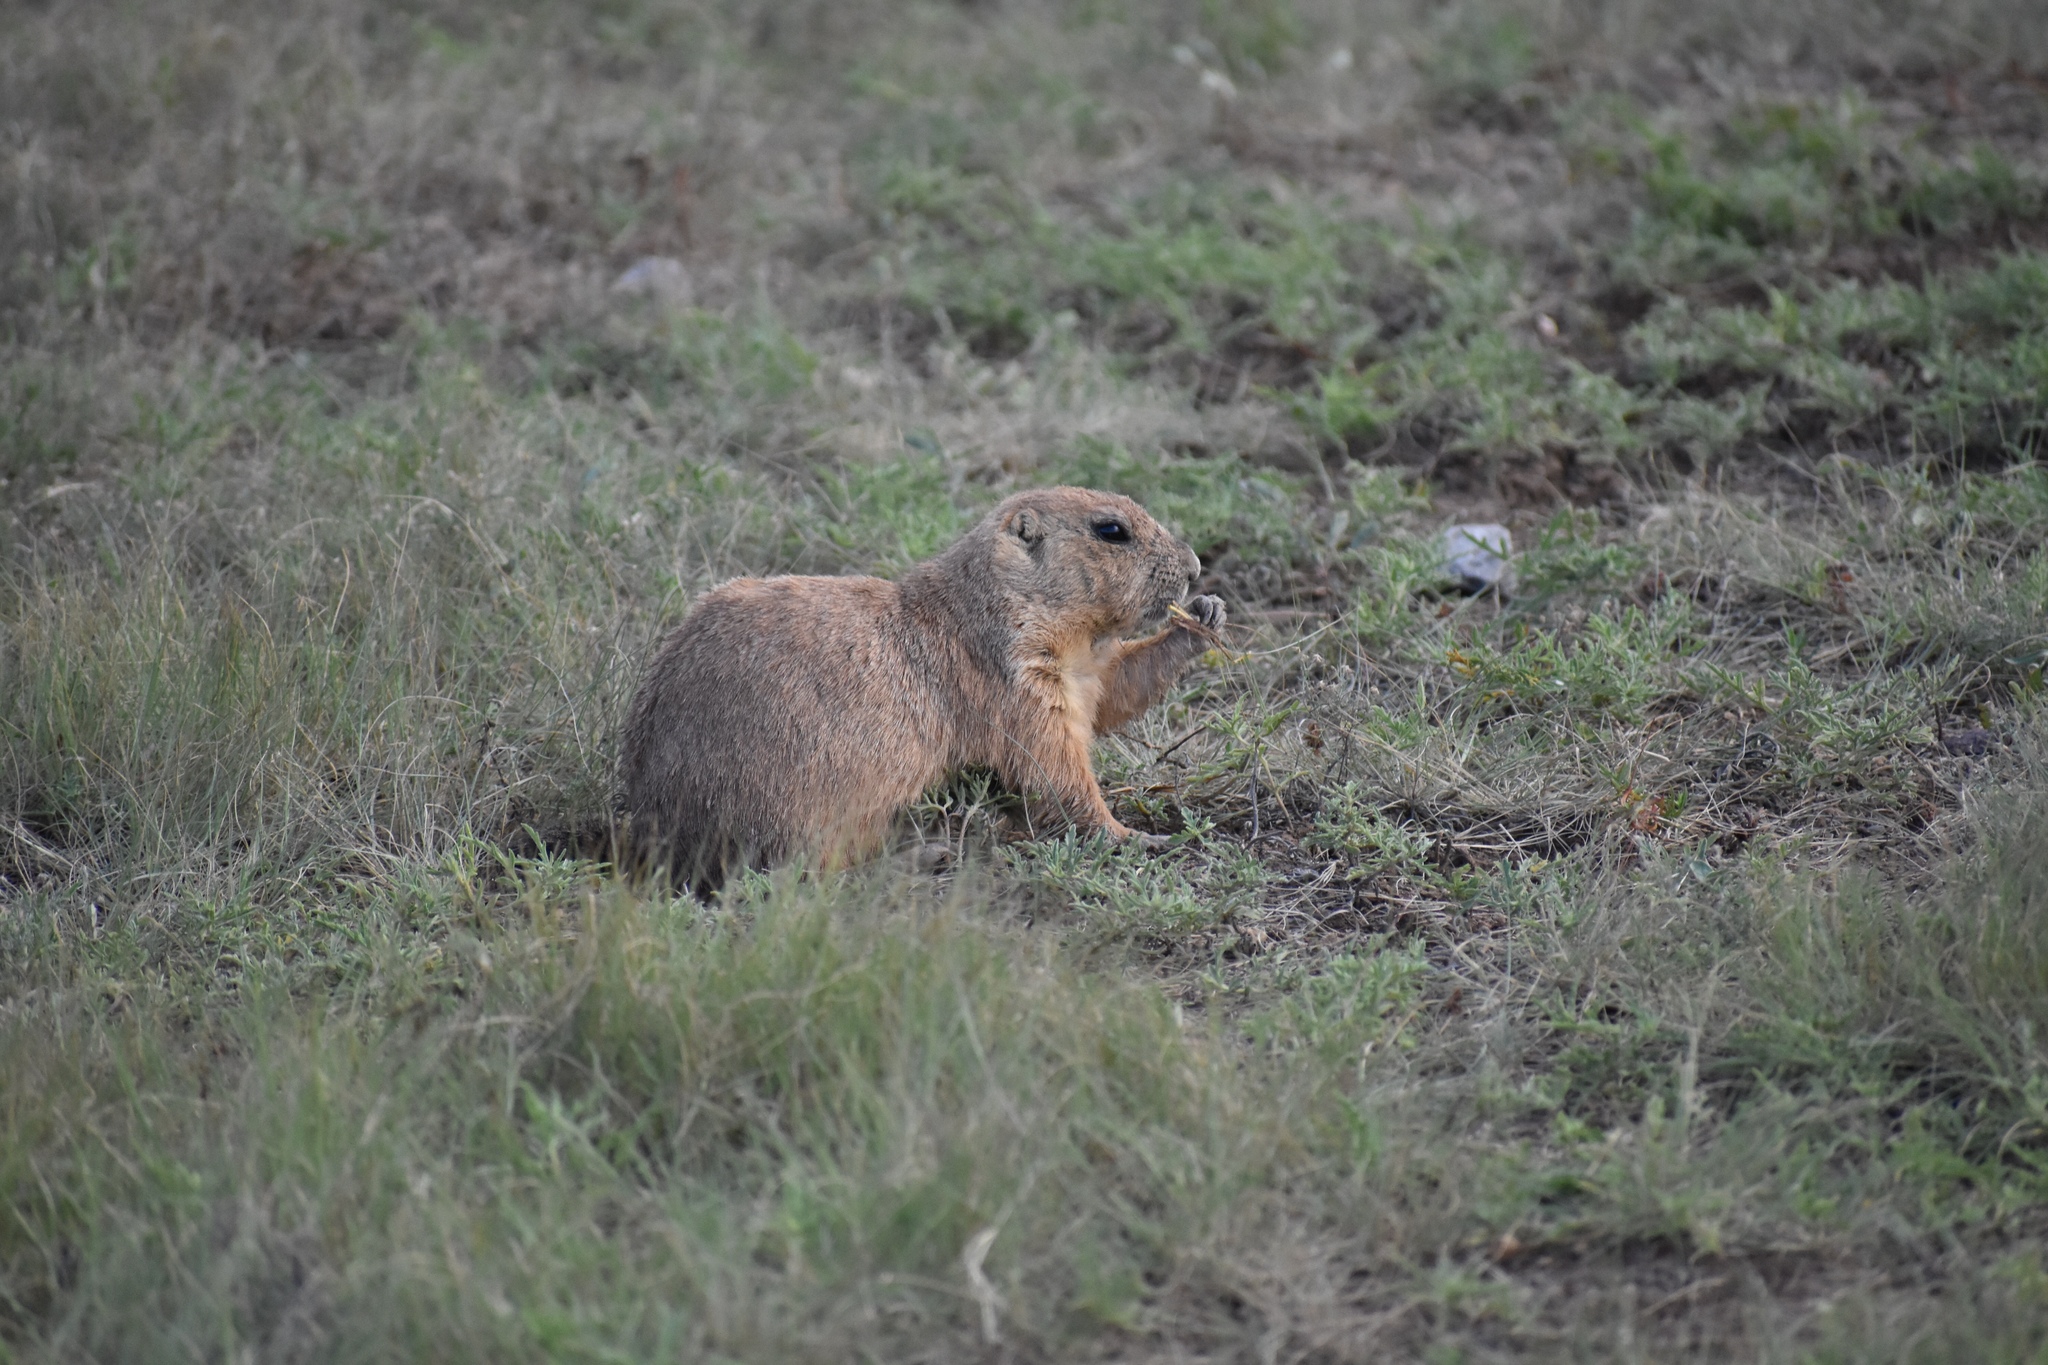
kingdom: Animalia
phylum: Chordata
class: Mammalia
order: Rodentia
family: Sciuridae
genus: Cynomys
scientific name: Cynomys ludovicianus
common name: Black-tailed prairie dog
